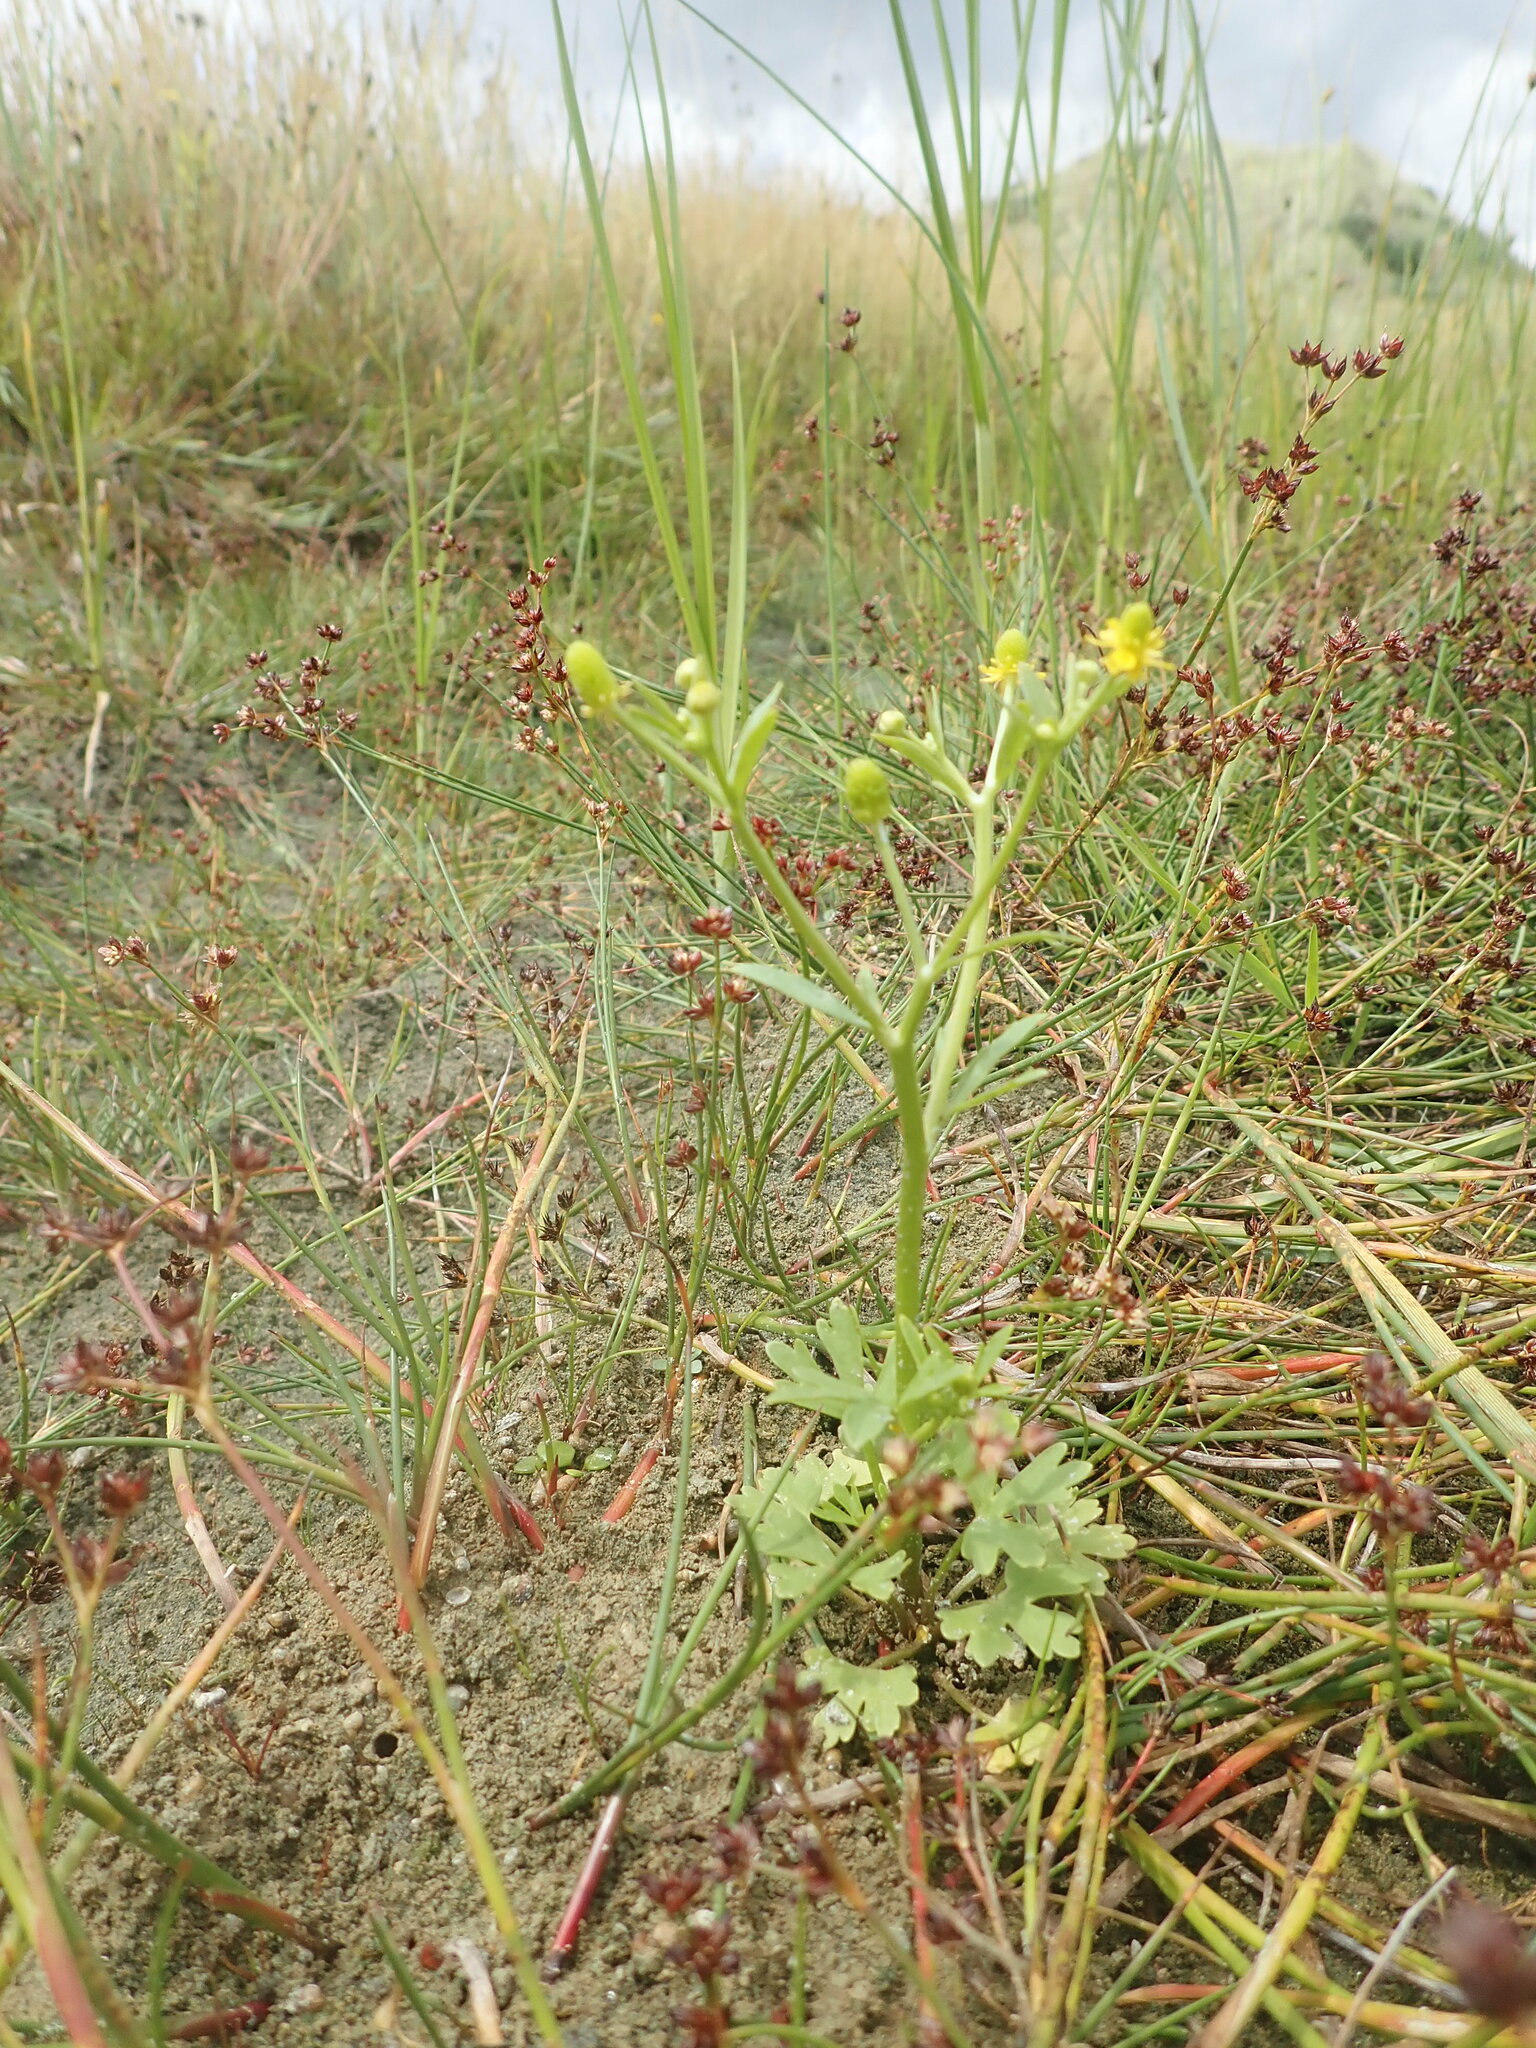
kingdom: Plantae
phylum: Tracheophyta
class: Magnoliopsida
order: Ranunculales
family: Ranunculaceae
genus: Ranunculus
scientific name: Ranunculus sceleratus
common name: Celery-leaved buttercup
